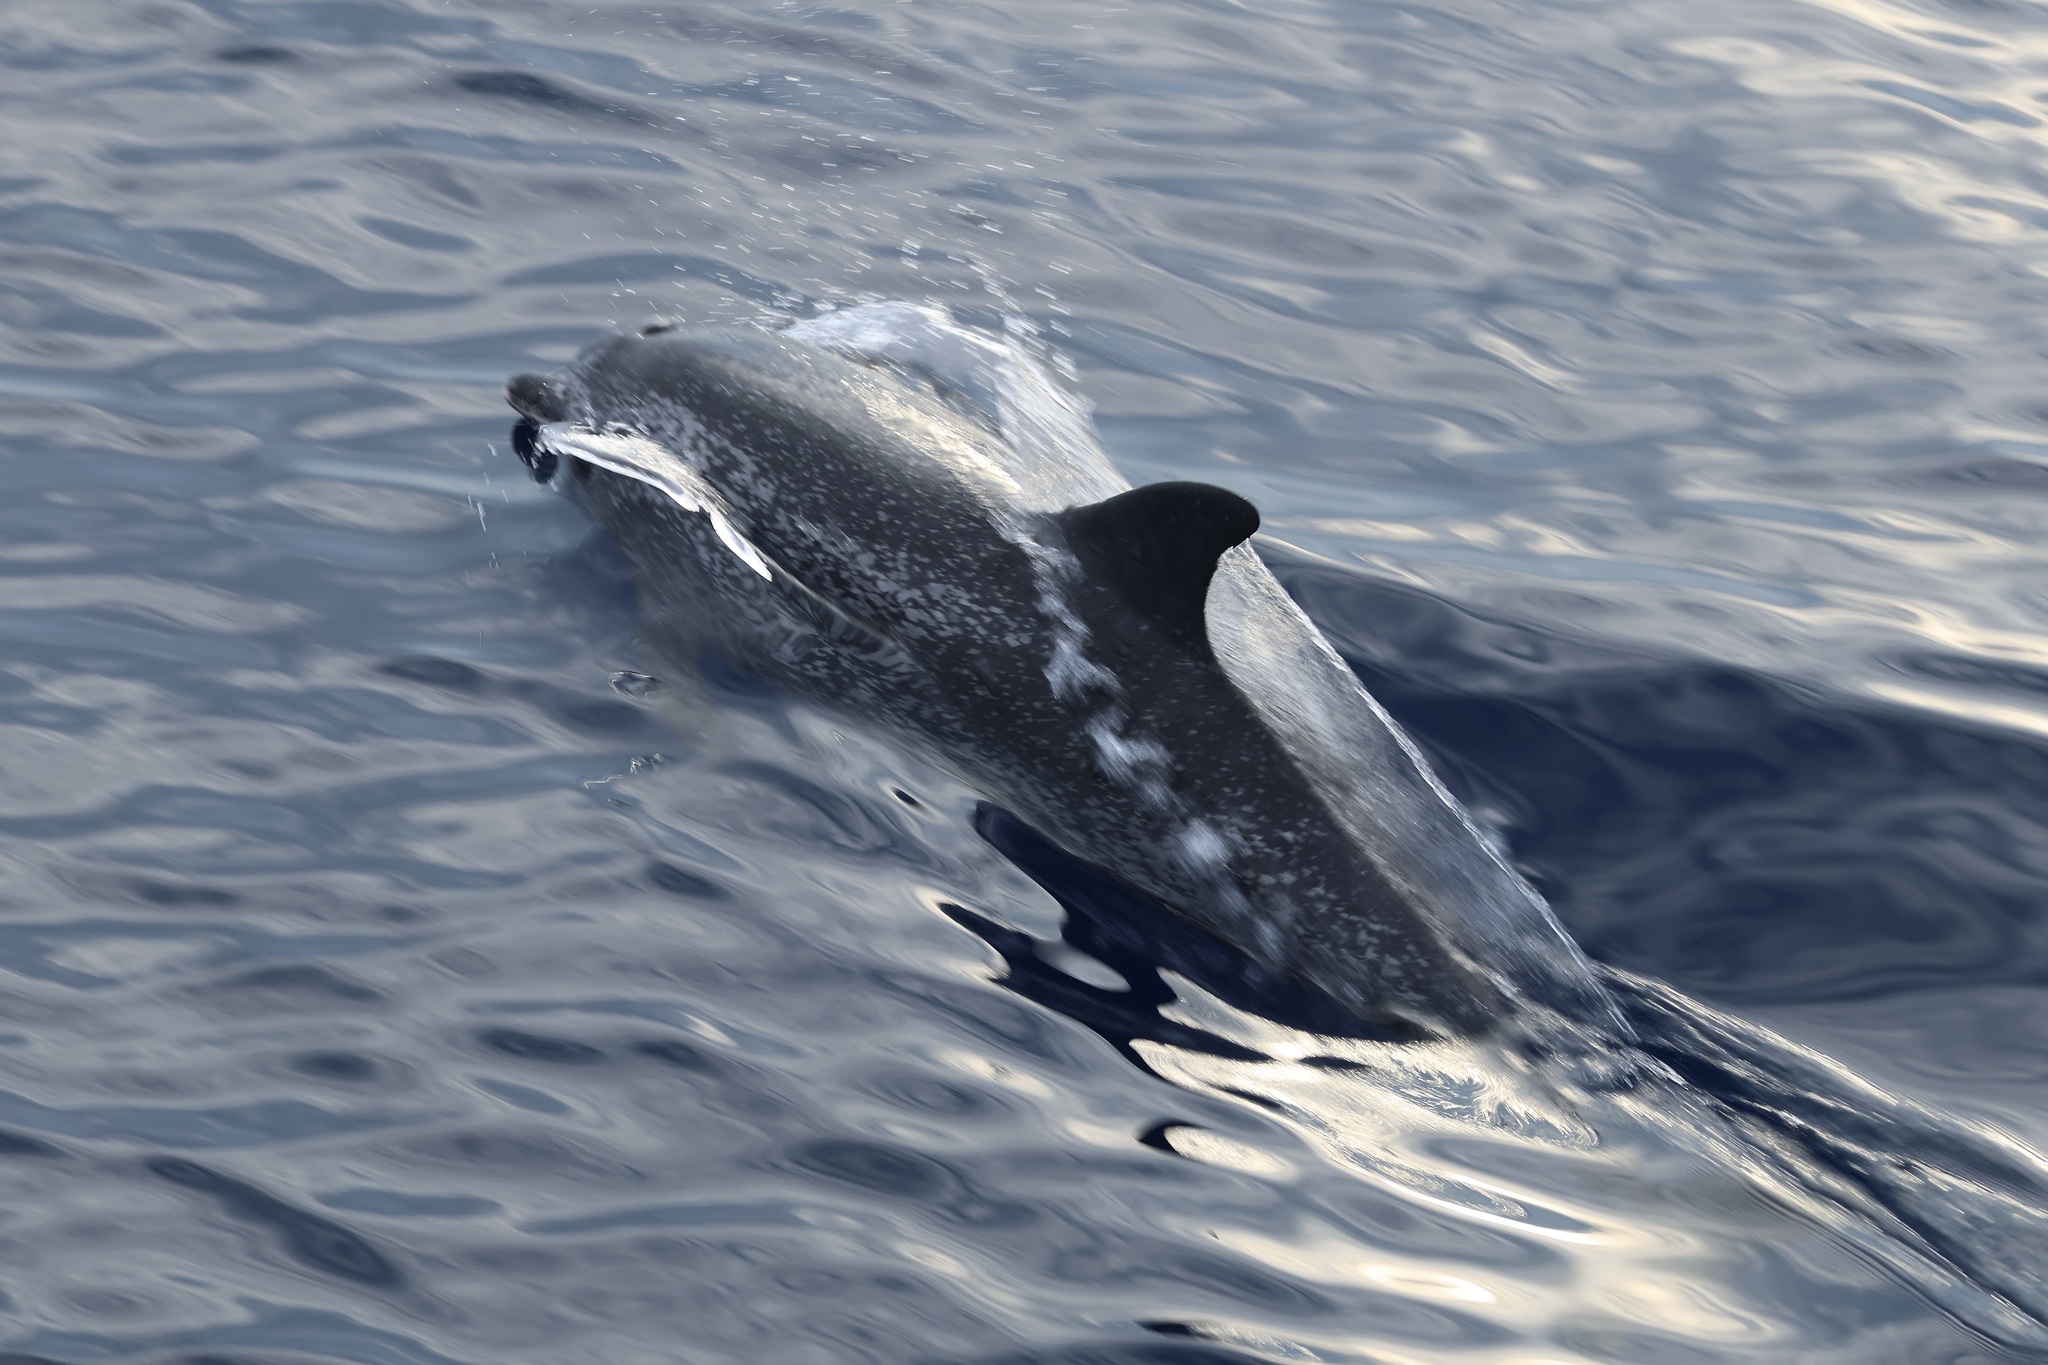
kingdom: Animalia
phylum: Chordata
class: Mammalia
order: Cetacea
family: Delphinidae
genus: Stenella
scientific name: Stenella frontalis
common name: Atlantic spotted dolphin
